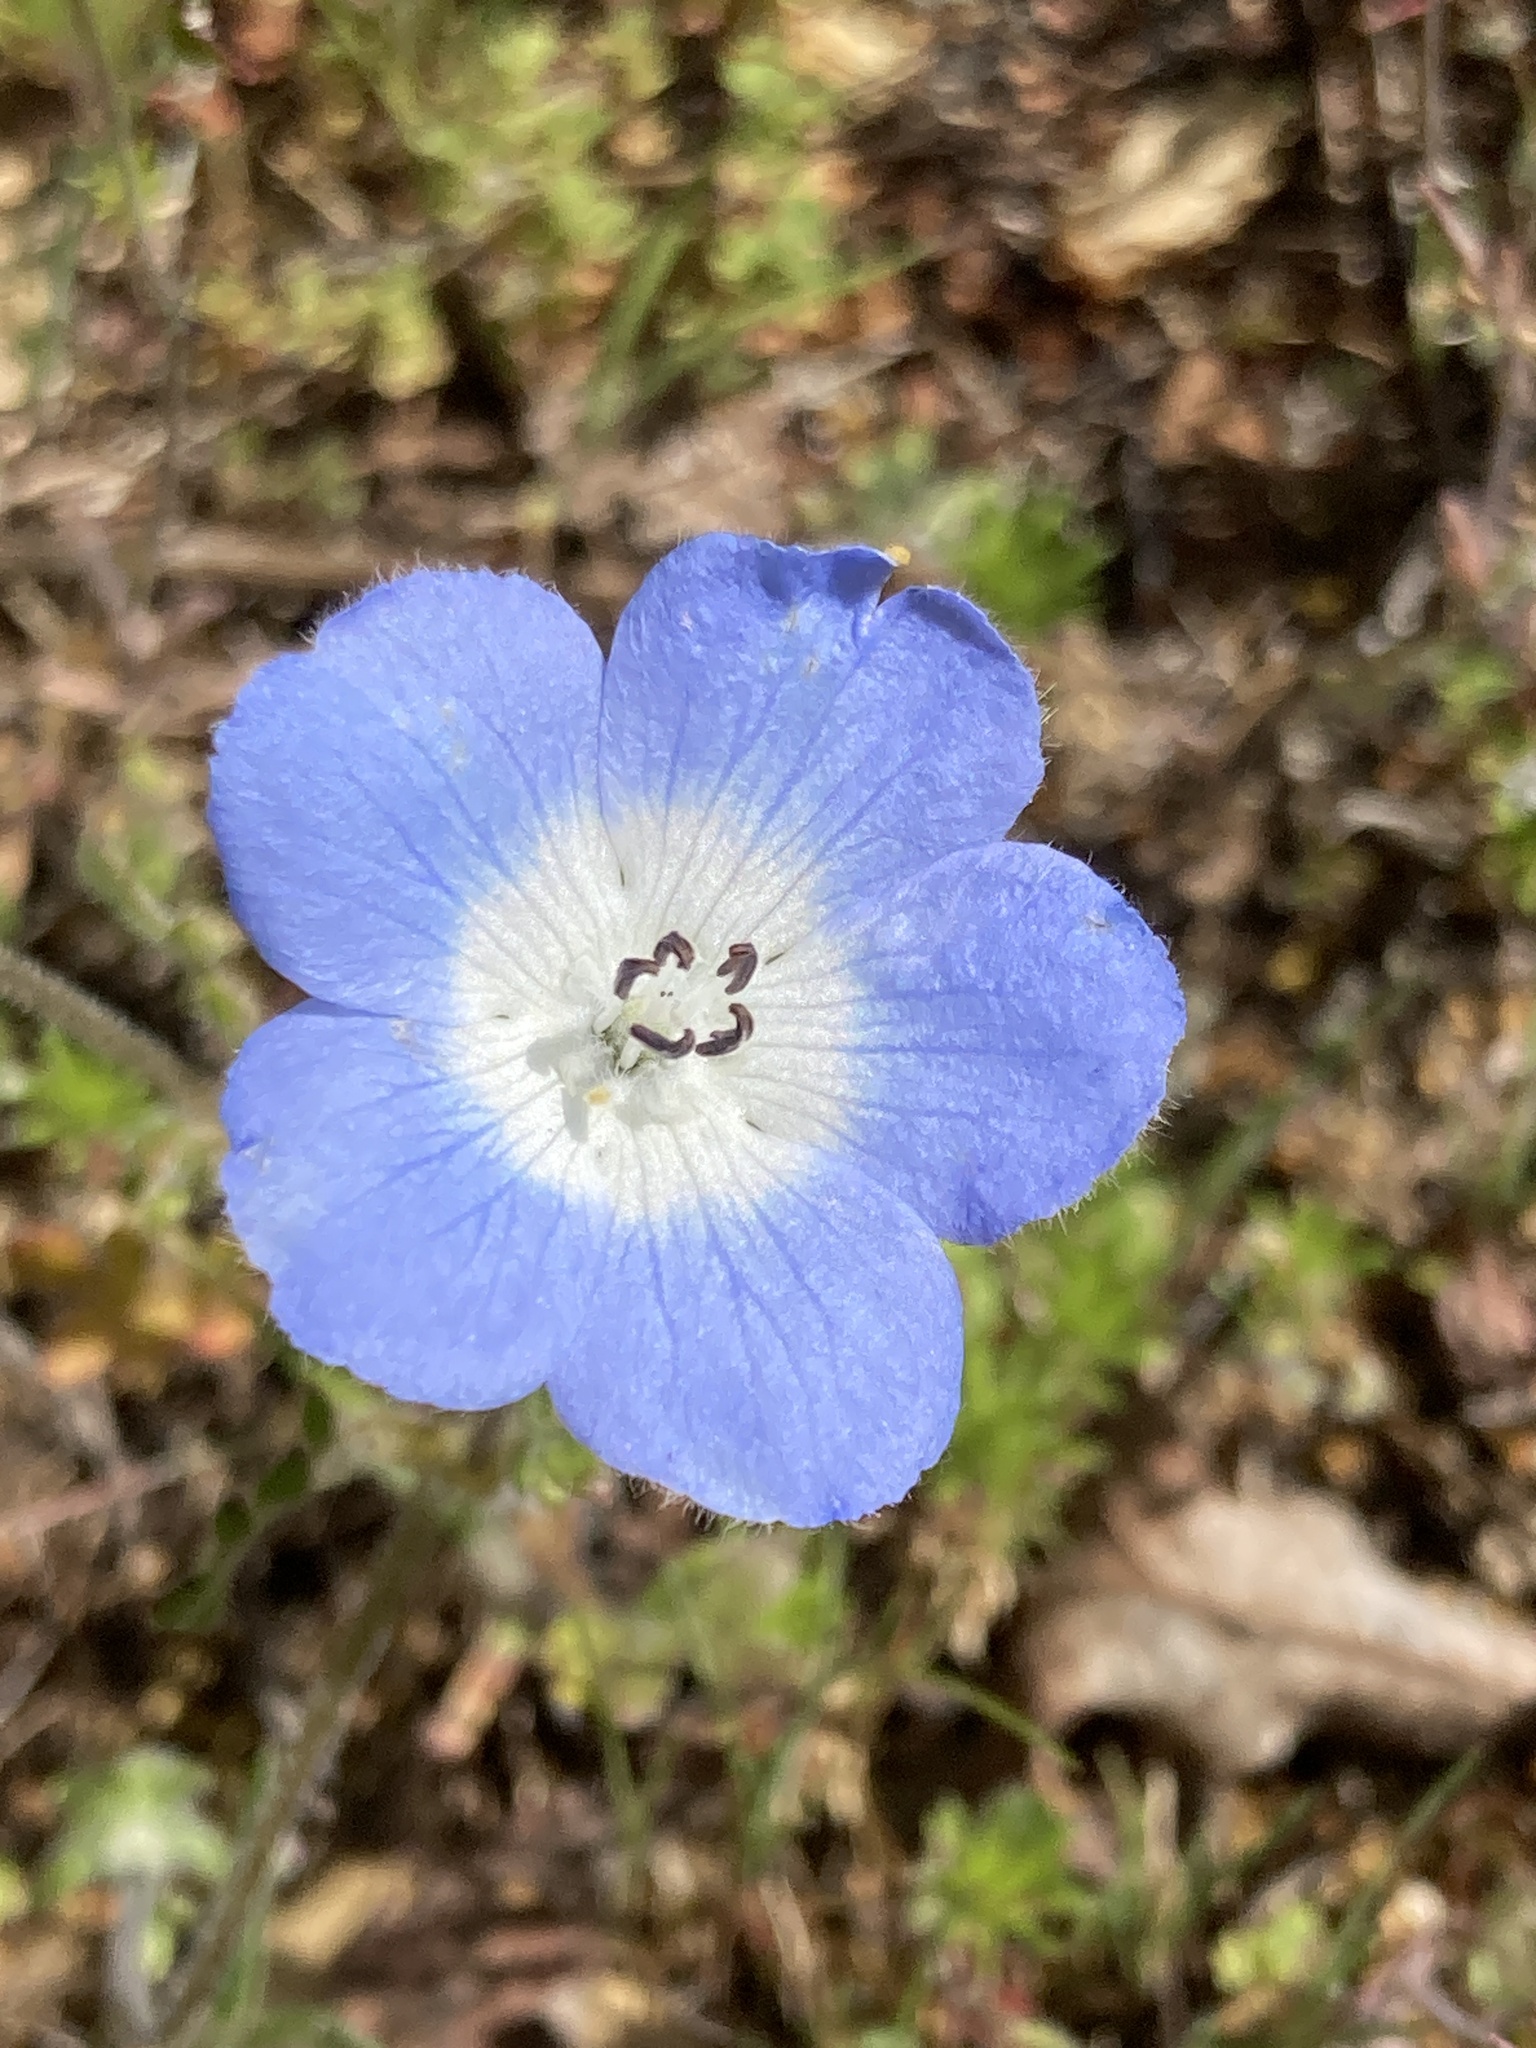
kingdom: Plantae
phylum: Tracheophyta
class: Magnoliopsida
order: Boraginales
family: Hydrophyllaceae
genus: Nemophila
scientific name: Nemophila menziesii
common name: Baby's-blue-eyes
